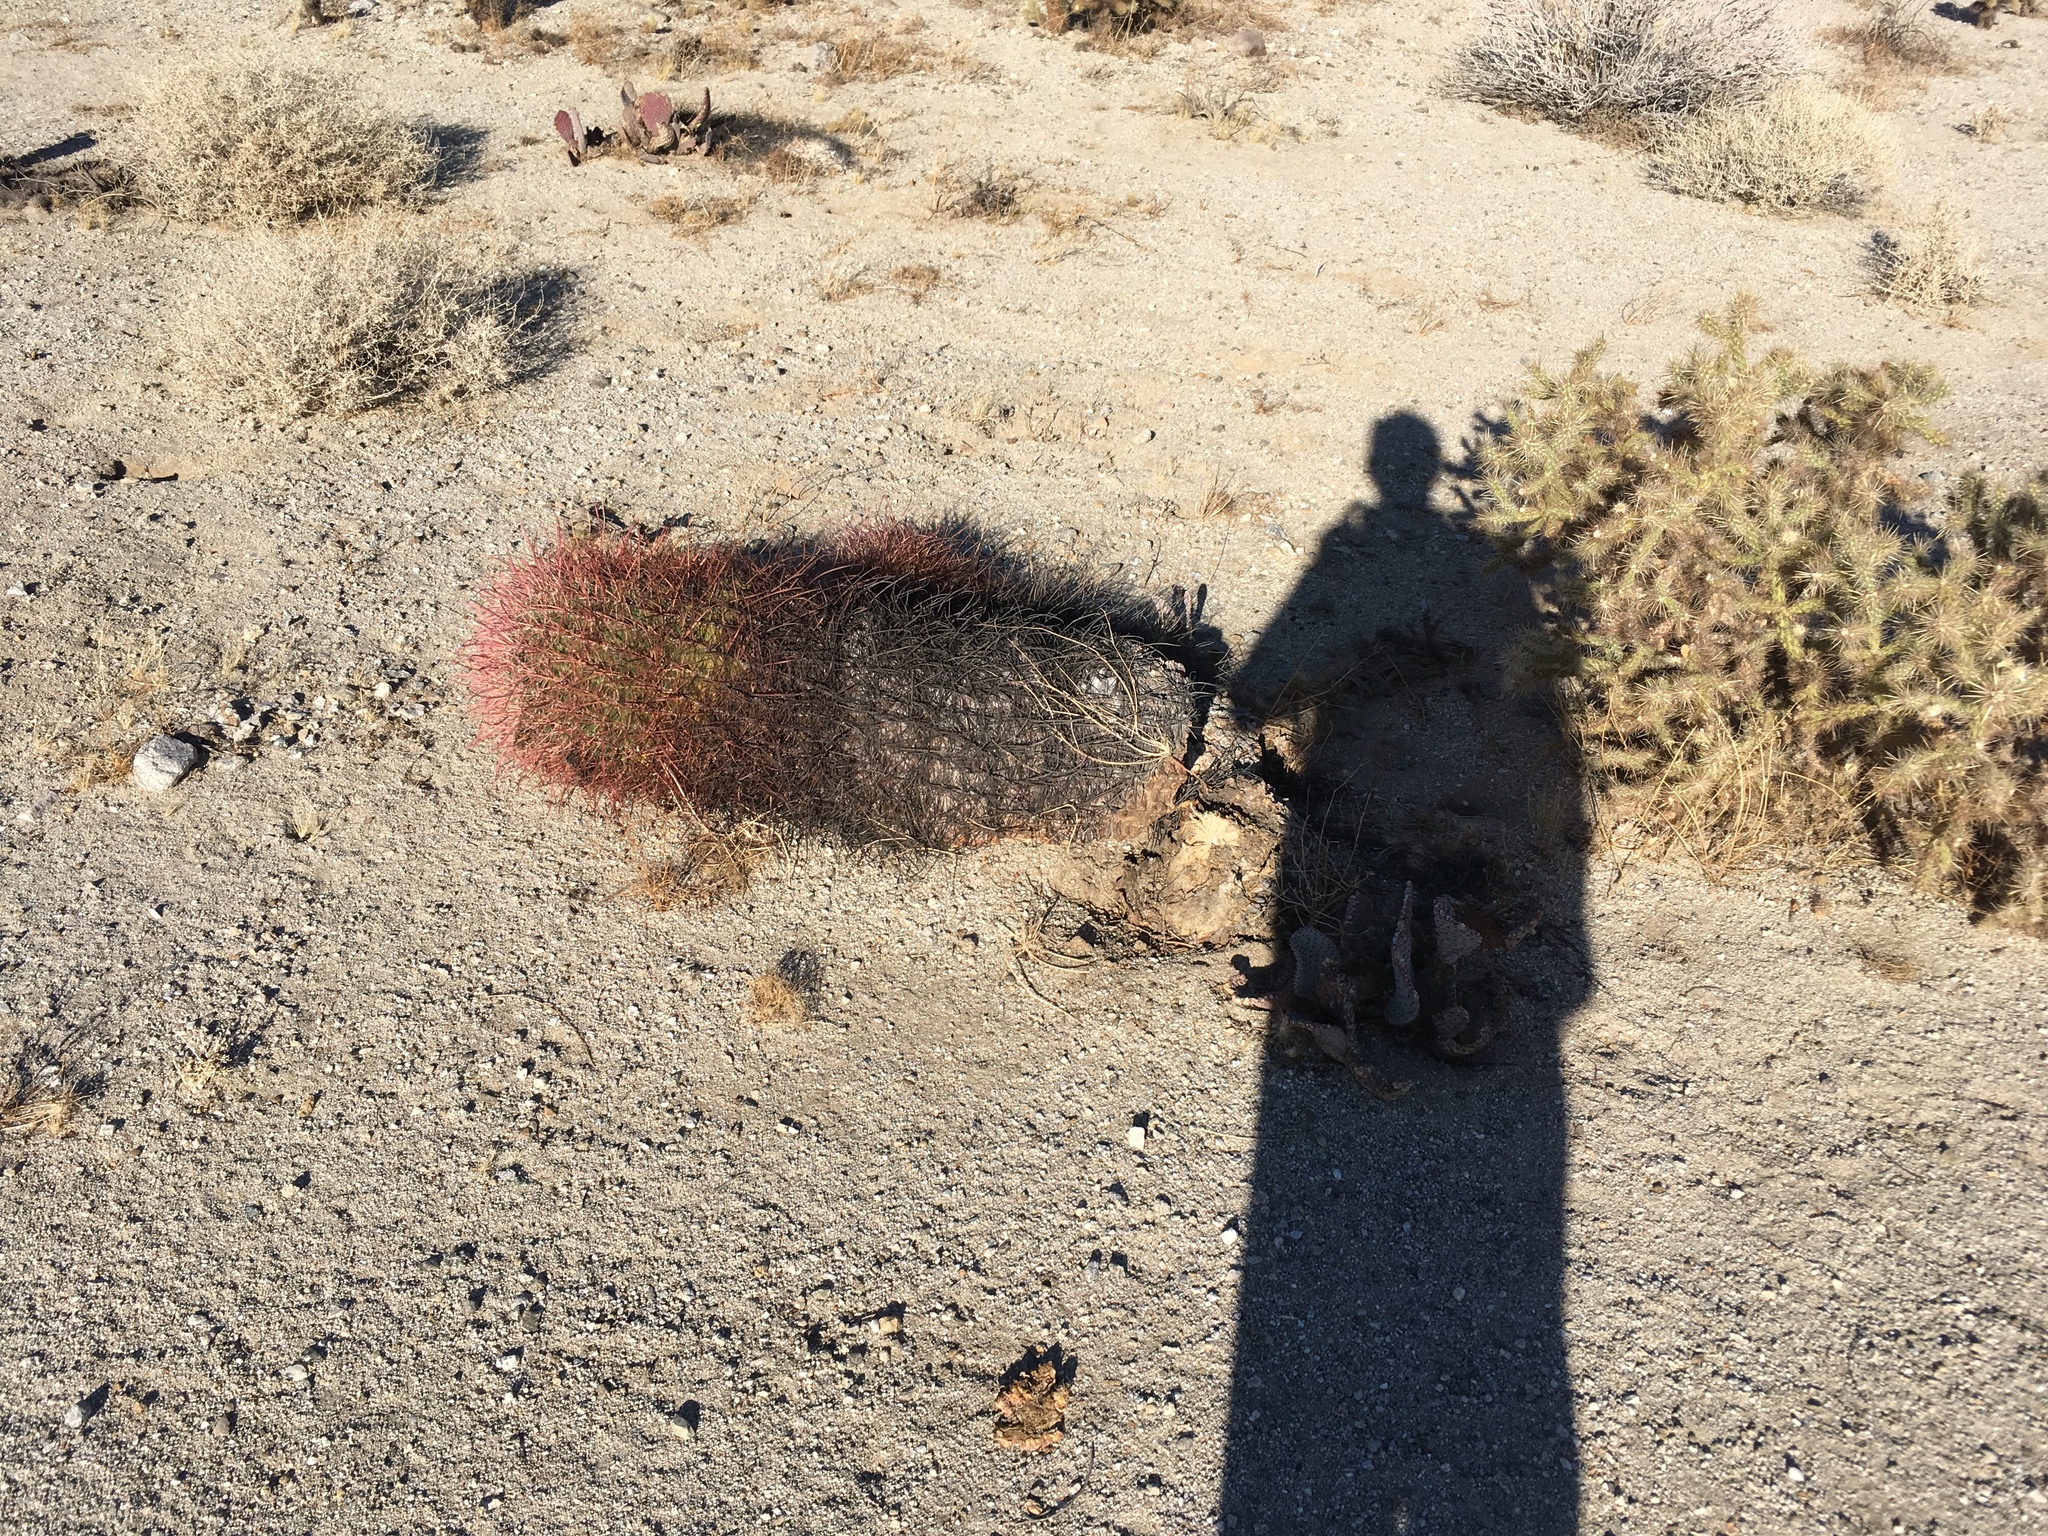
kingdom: Plantae
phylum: Tracheophyta
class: Magnoliopsida
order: Caryophyllales
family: Cactaceae
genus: Ferocactus
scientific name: Ferocactus cylindraceus
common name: California barrel cactus
